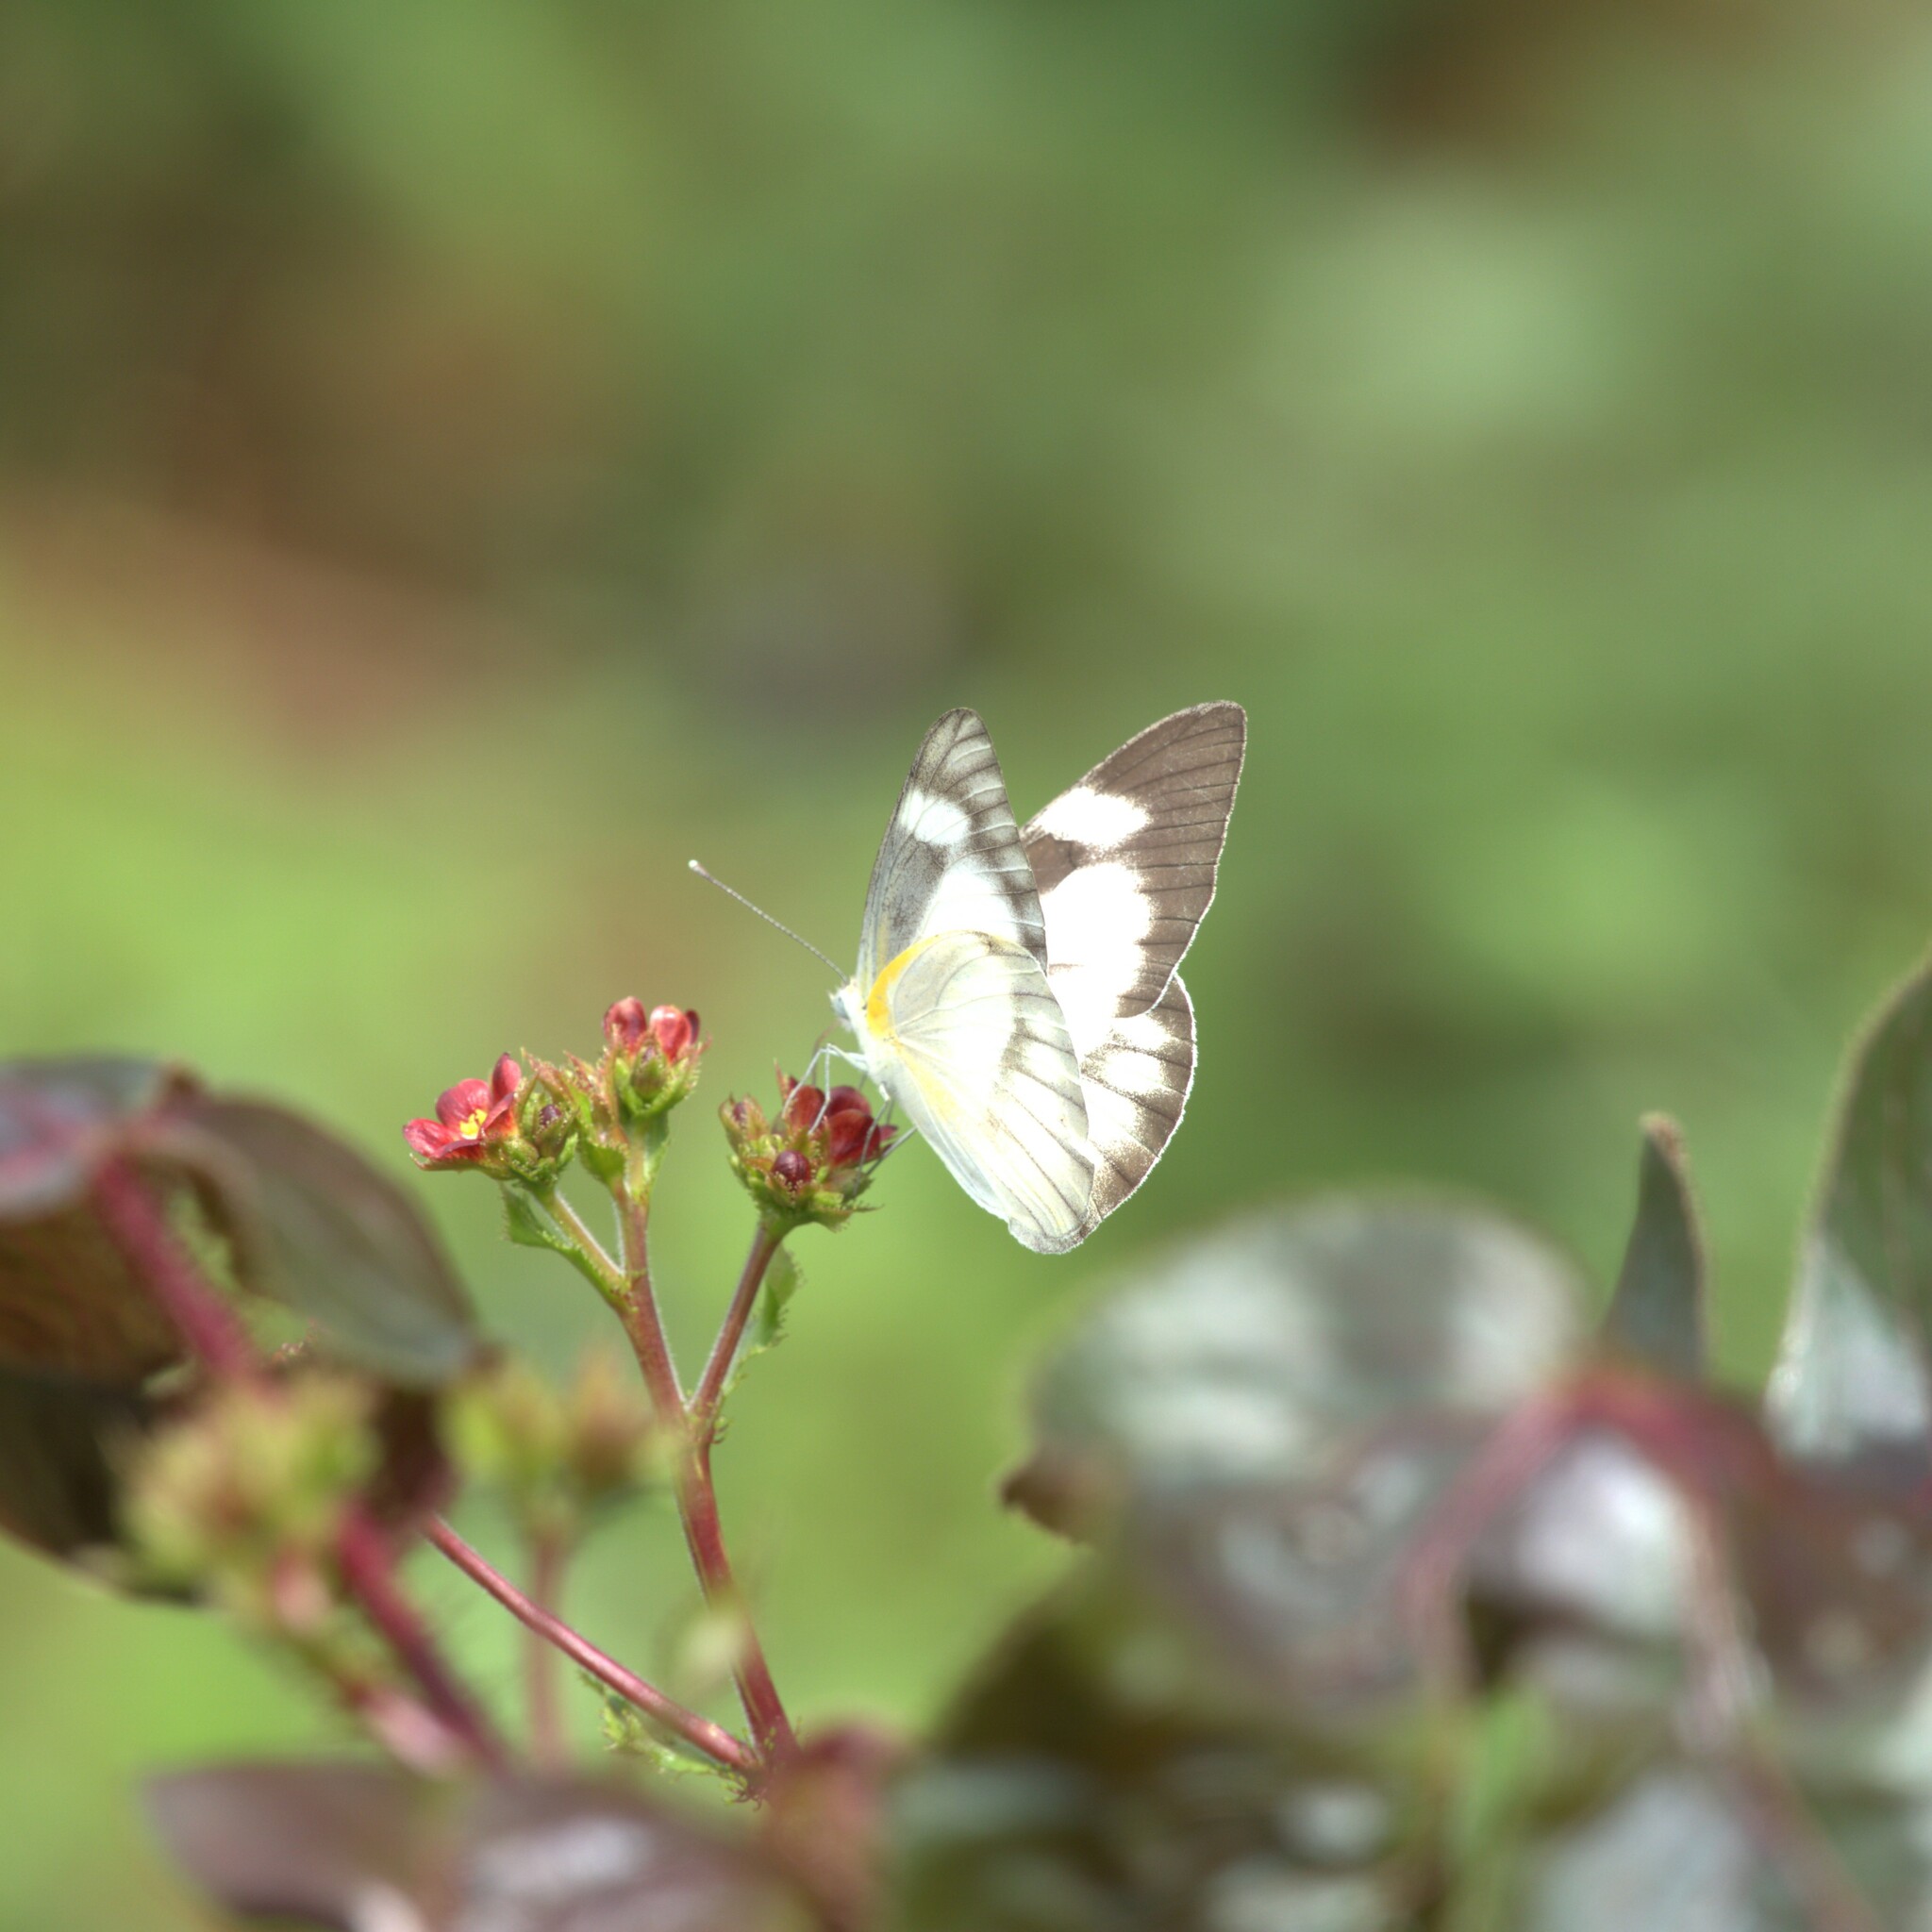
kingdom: Animalia
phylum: Arthropoda
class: Insecta
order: Lepidoptera
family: Pieridae
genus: Appias
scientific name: Appias libythea
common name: Striped albatross
